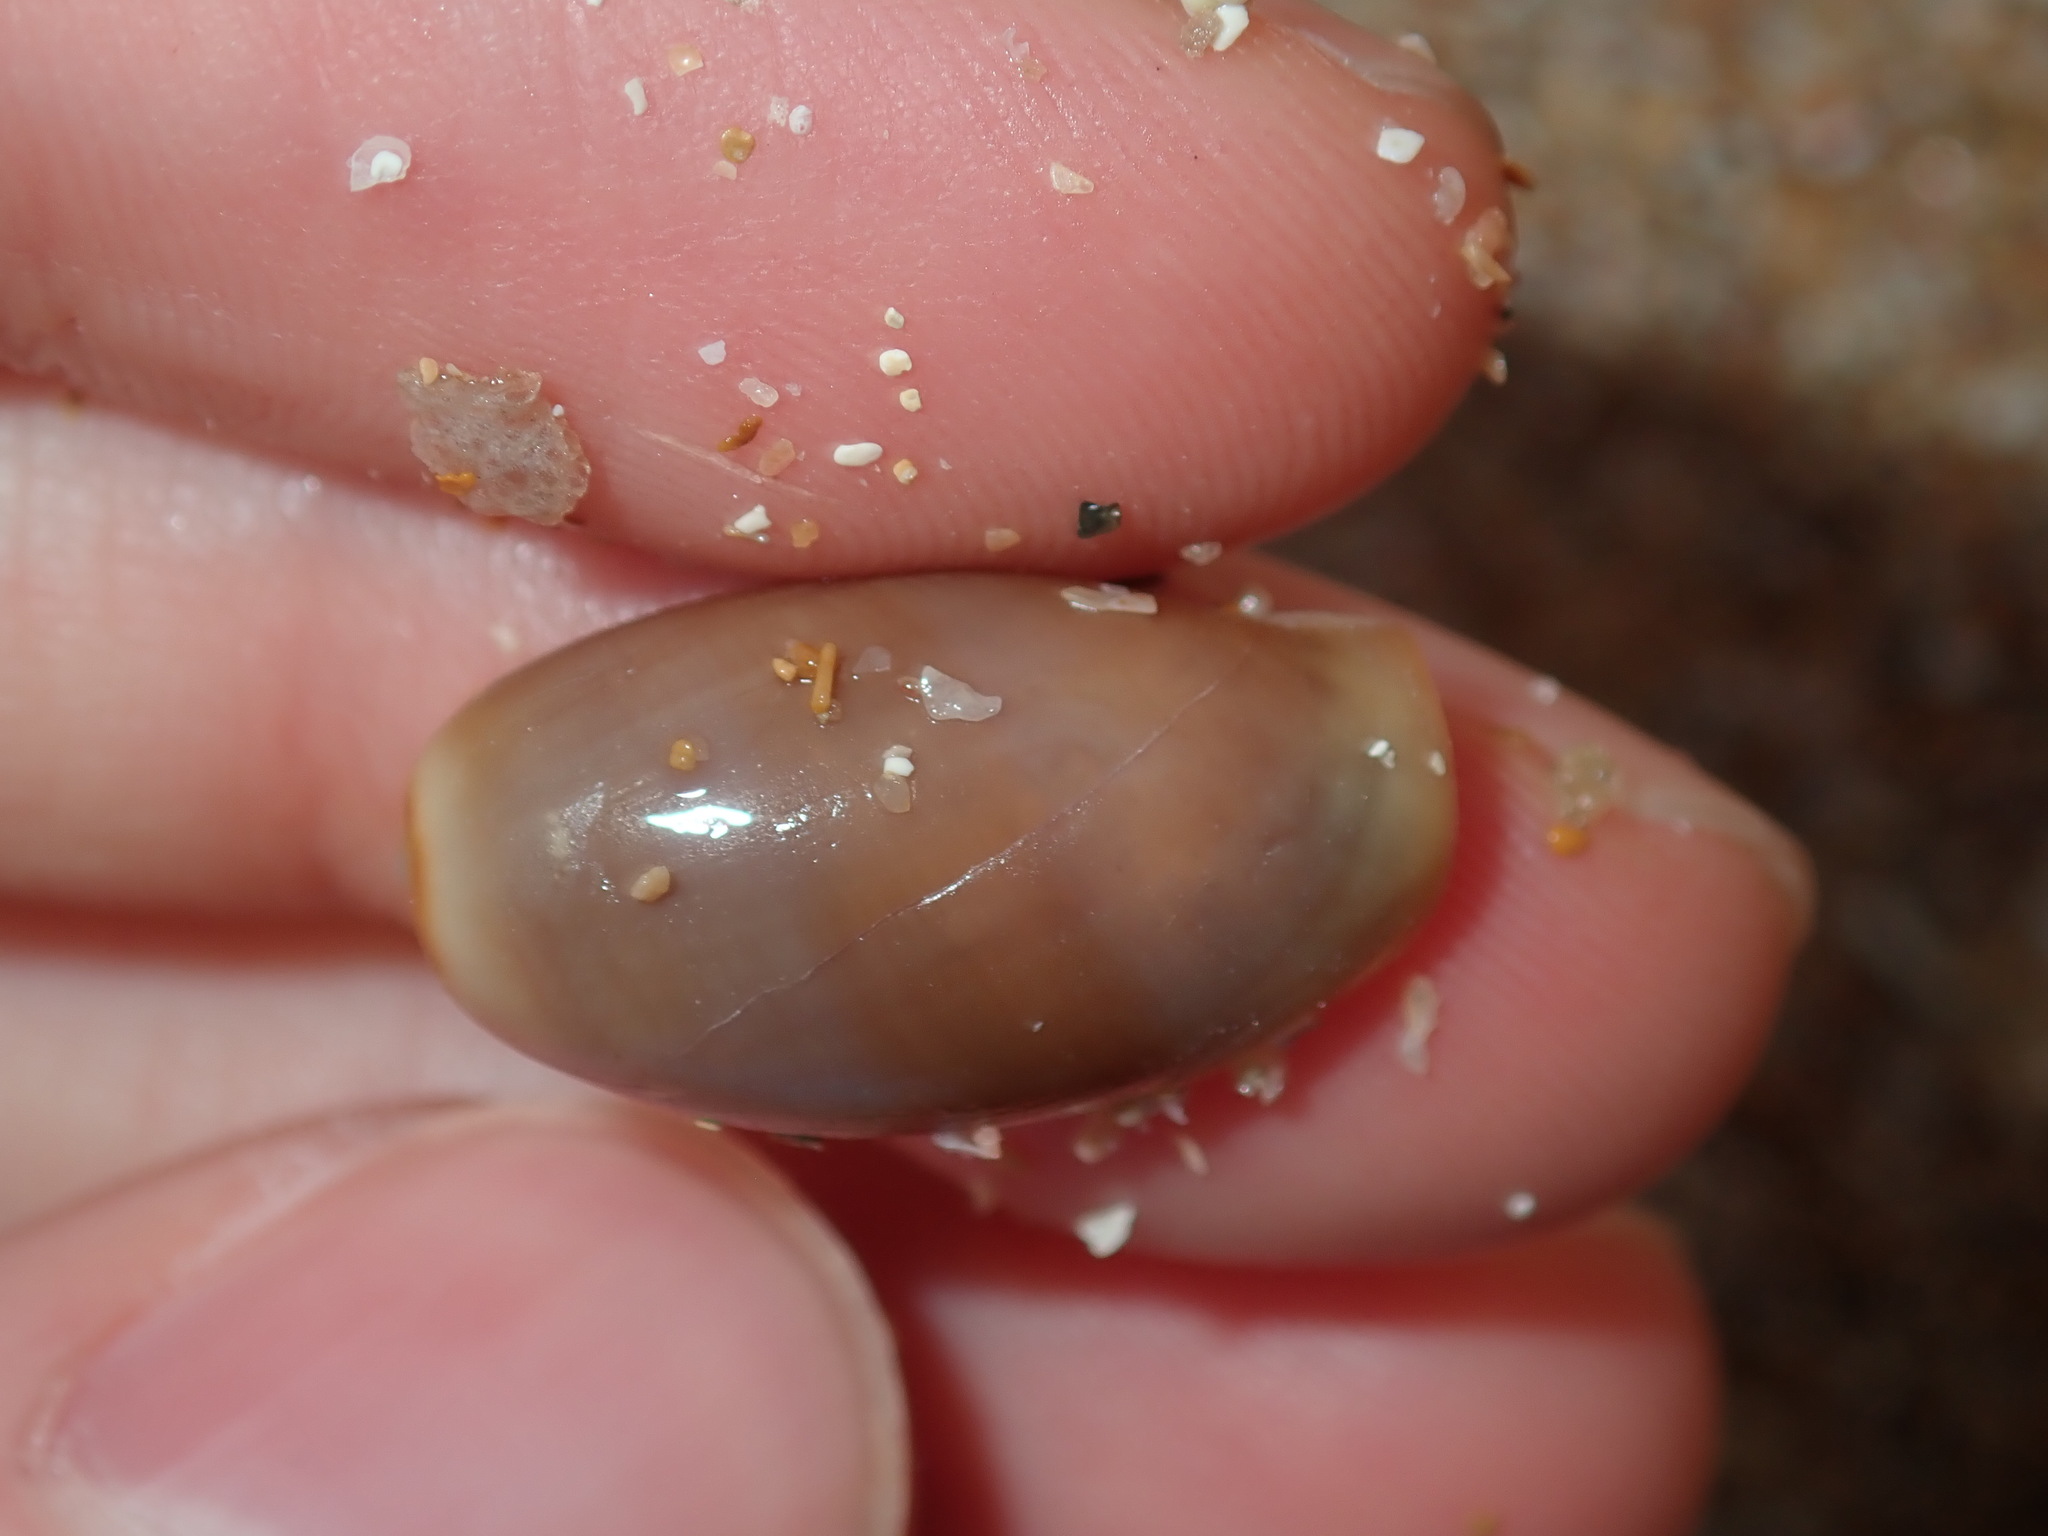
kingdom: Animalia
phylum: Mollusca
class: Gastropoda
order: Littorinimorpha
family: Cypraeidae
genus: Monetaria
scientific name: Monetaria caputserpentis
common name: Serpent's head cowrie
